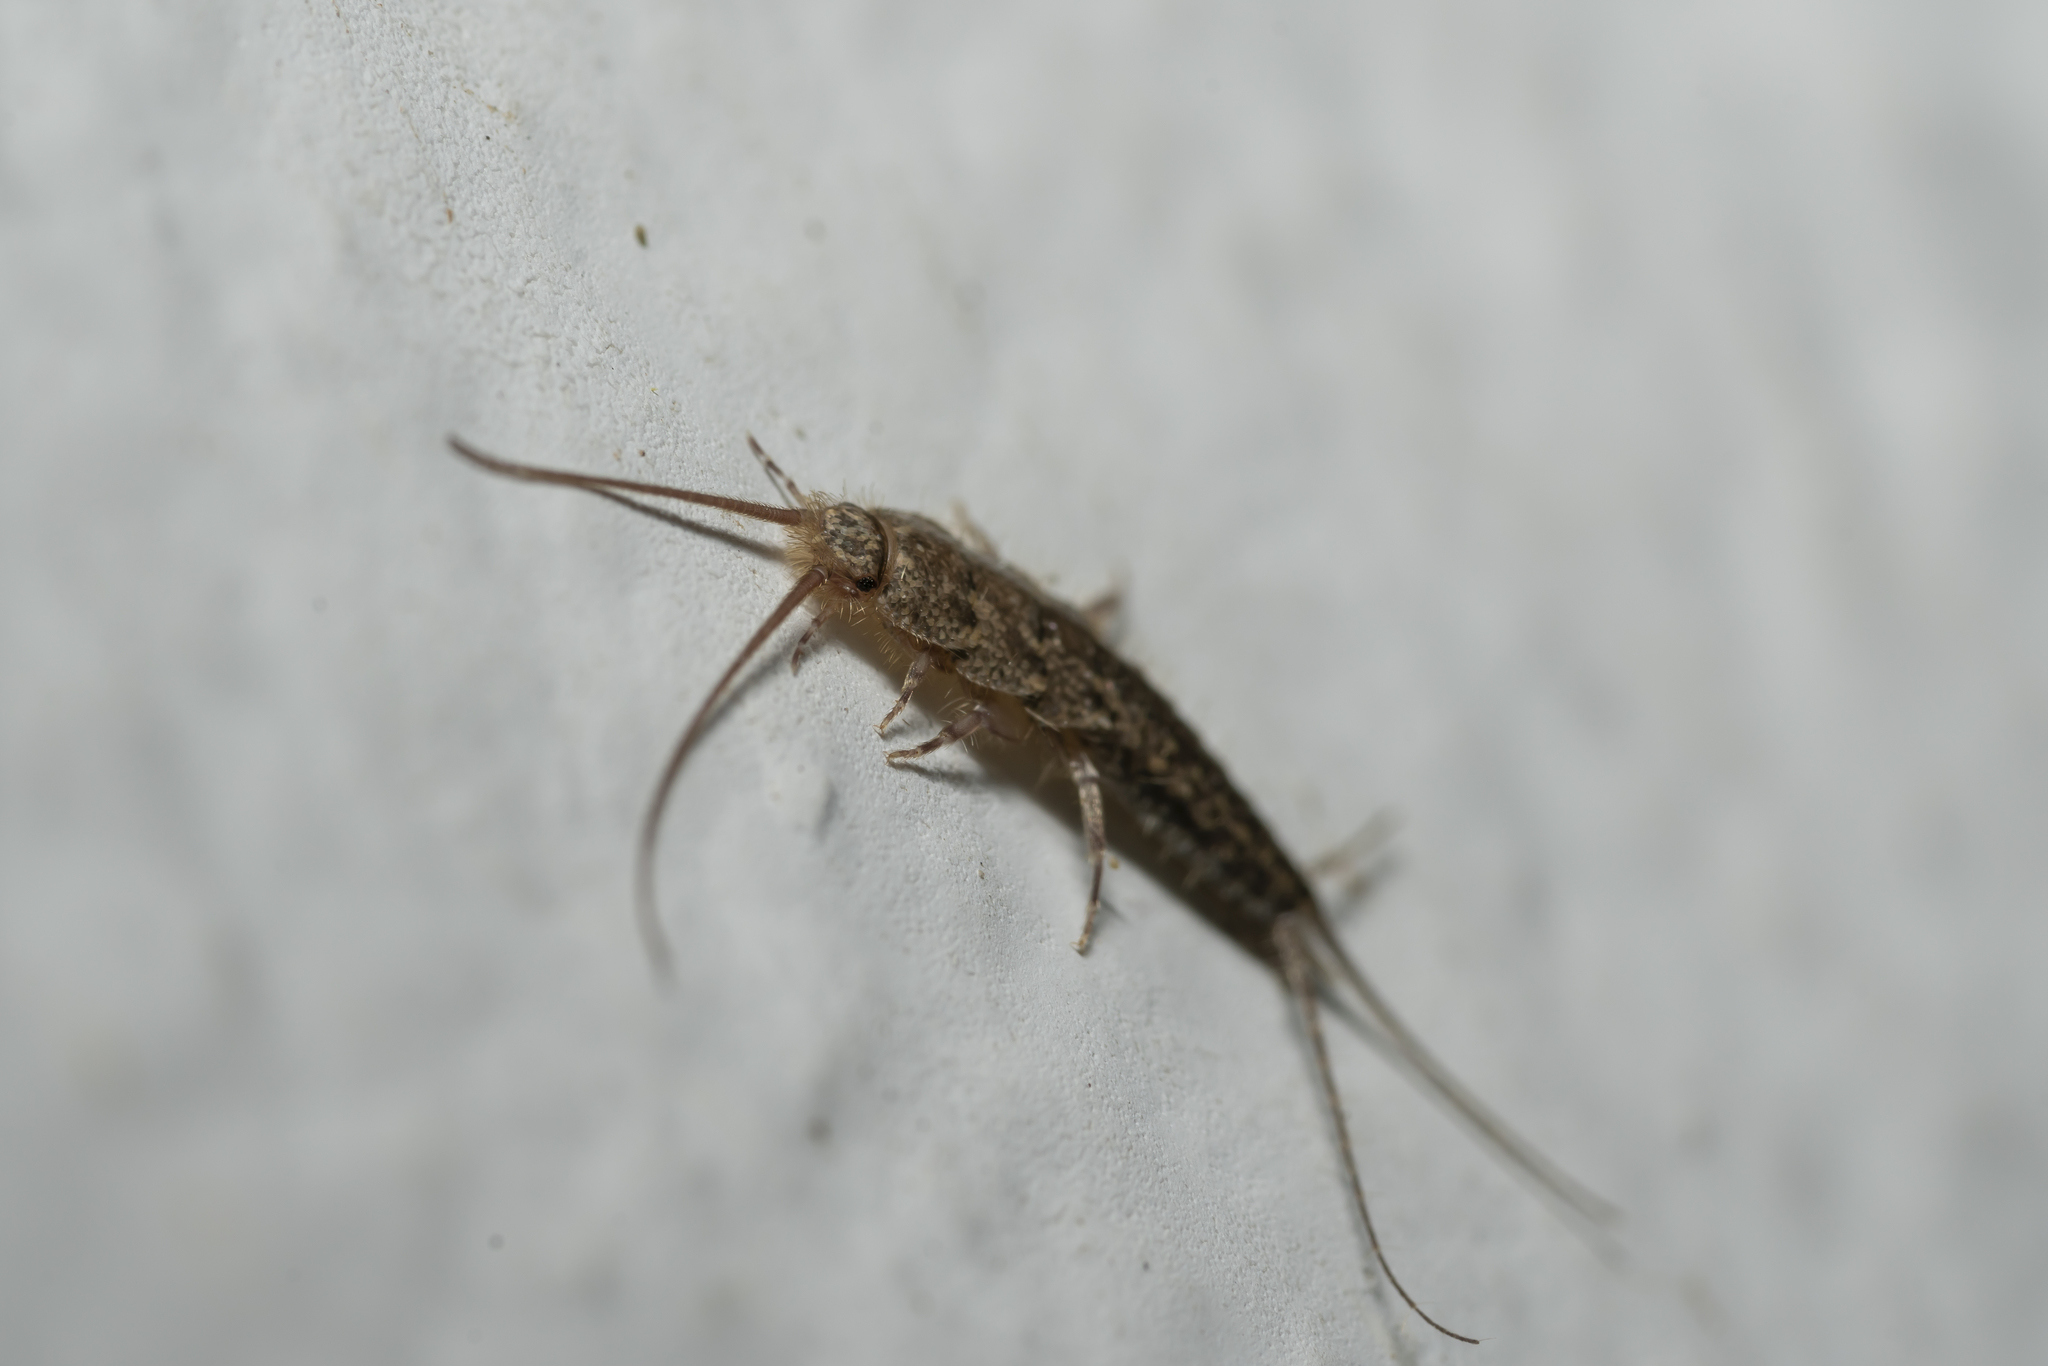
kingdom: Animalia
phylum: Arthropoda
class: Insecta
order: Zygentoma
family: Lepismatidae
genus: Ctenolepisma
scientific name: Ctenolepisma lineata
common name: Four-lined silverfish
